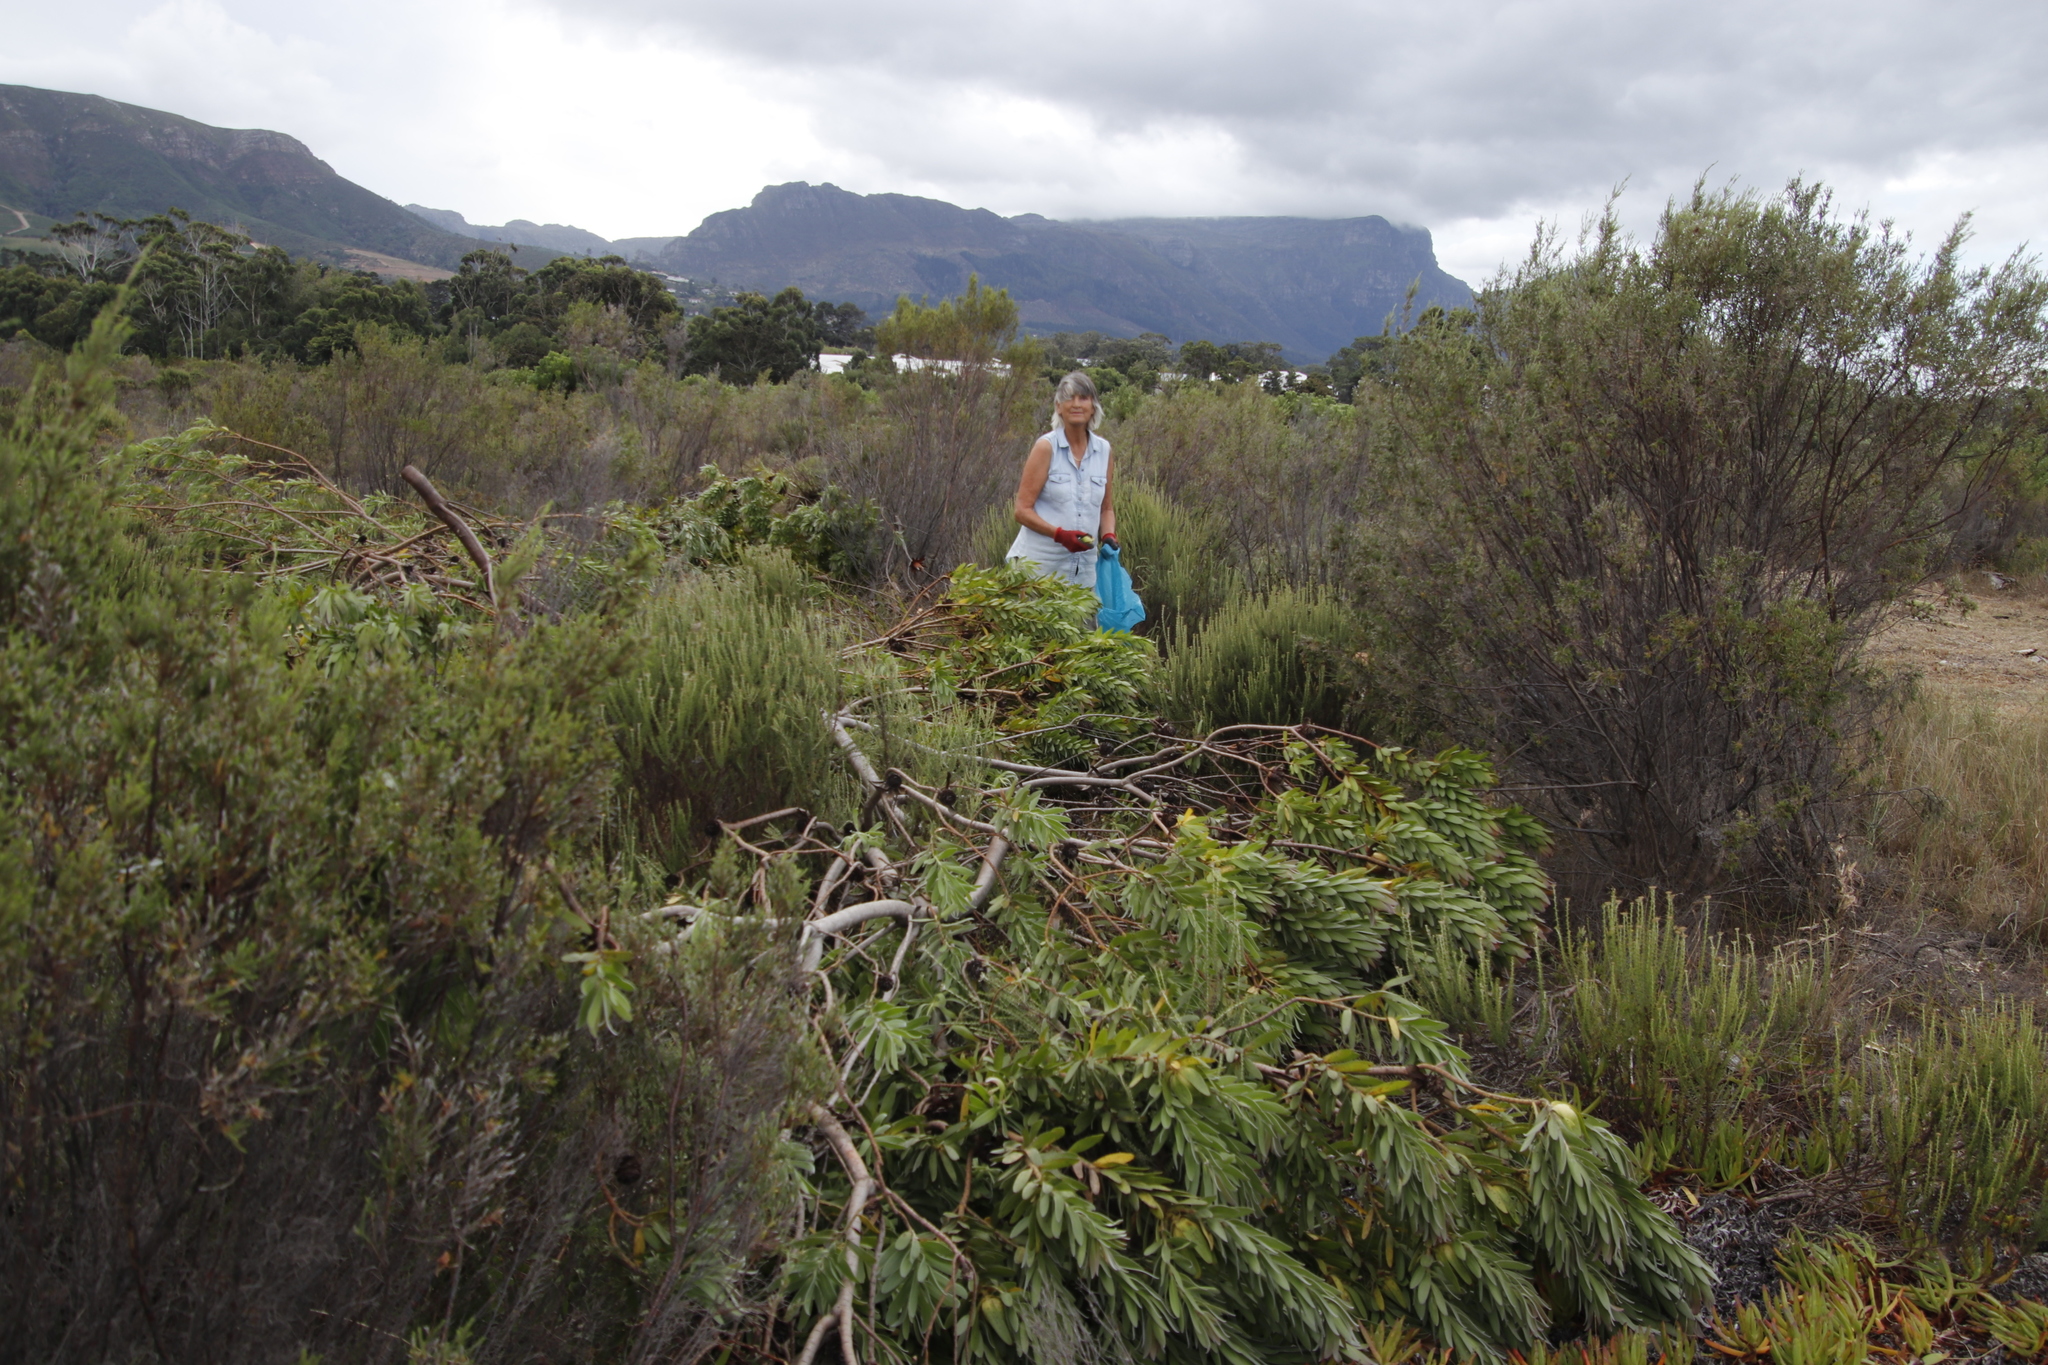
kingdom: Plantae
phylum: Tracheophyta
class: Magnoliopsida
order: Proteales
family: Proteaceae
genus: Protea
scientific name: Protea repens
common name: Sugarbush
